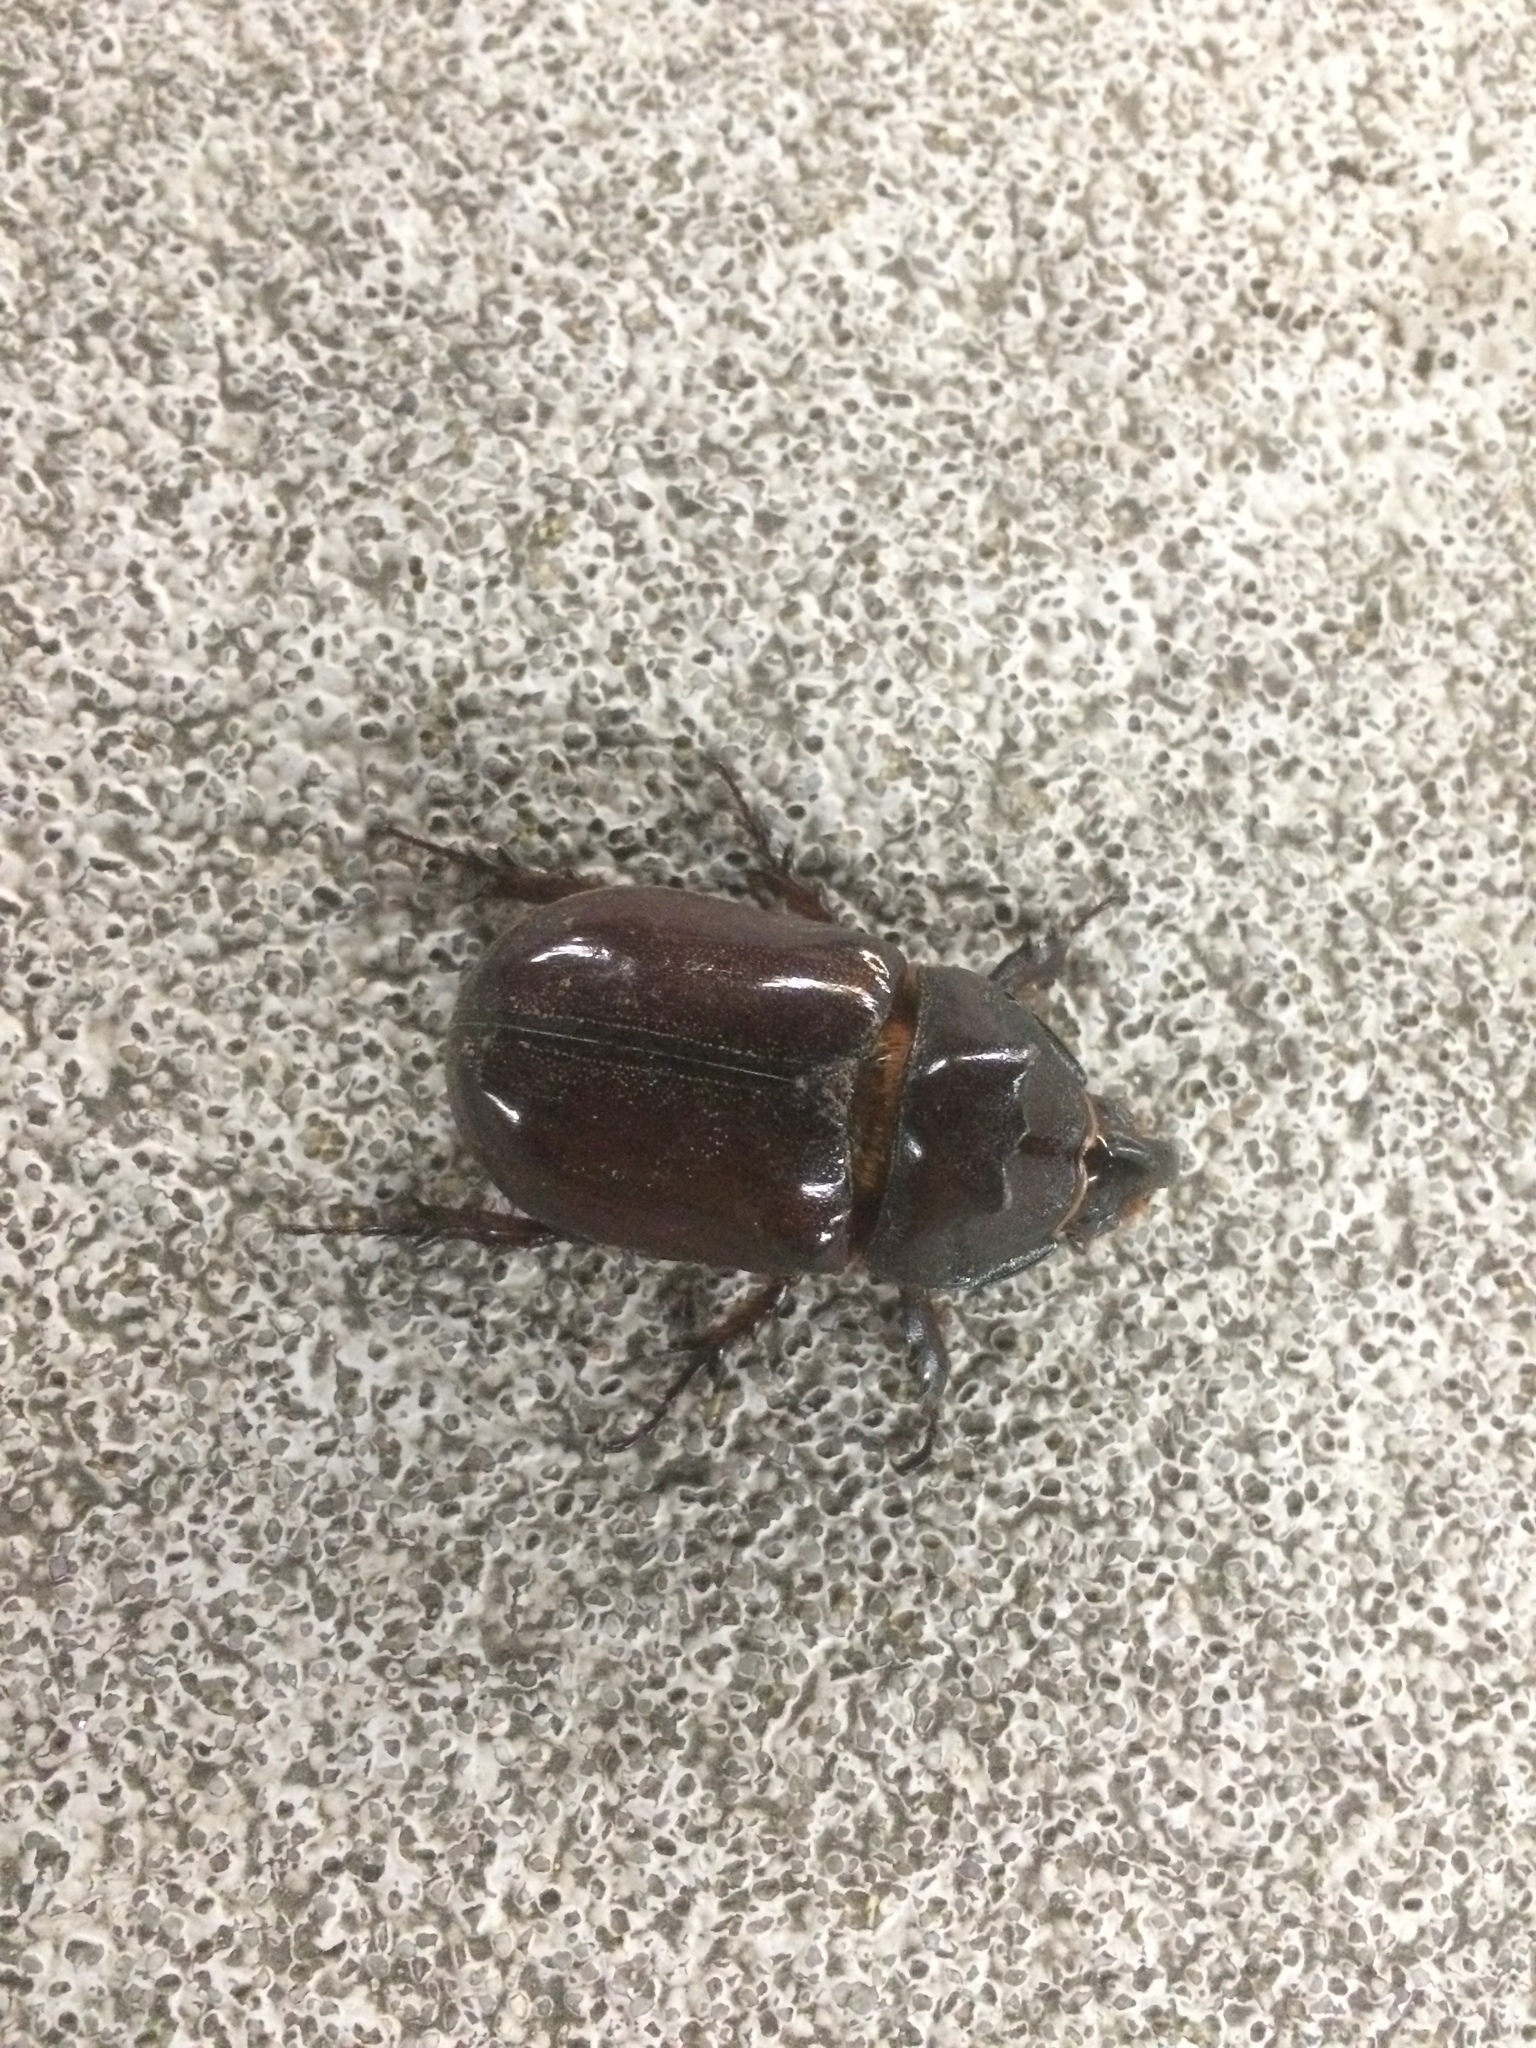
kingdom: Animalia
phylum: Arthropoda
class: Insecta
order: Coleoptera
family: Scarabaeidae
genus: Oryctes
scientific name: Oryctes nasicornis
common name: European rhinoceros beetle
